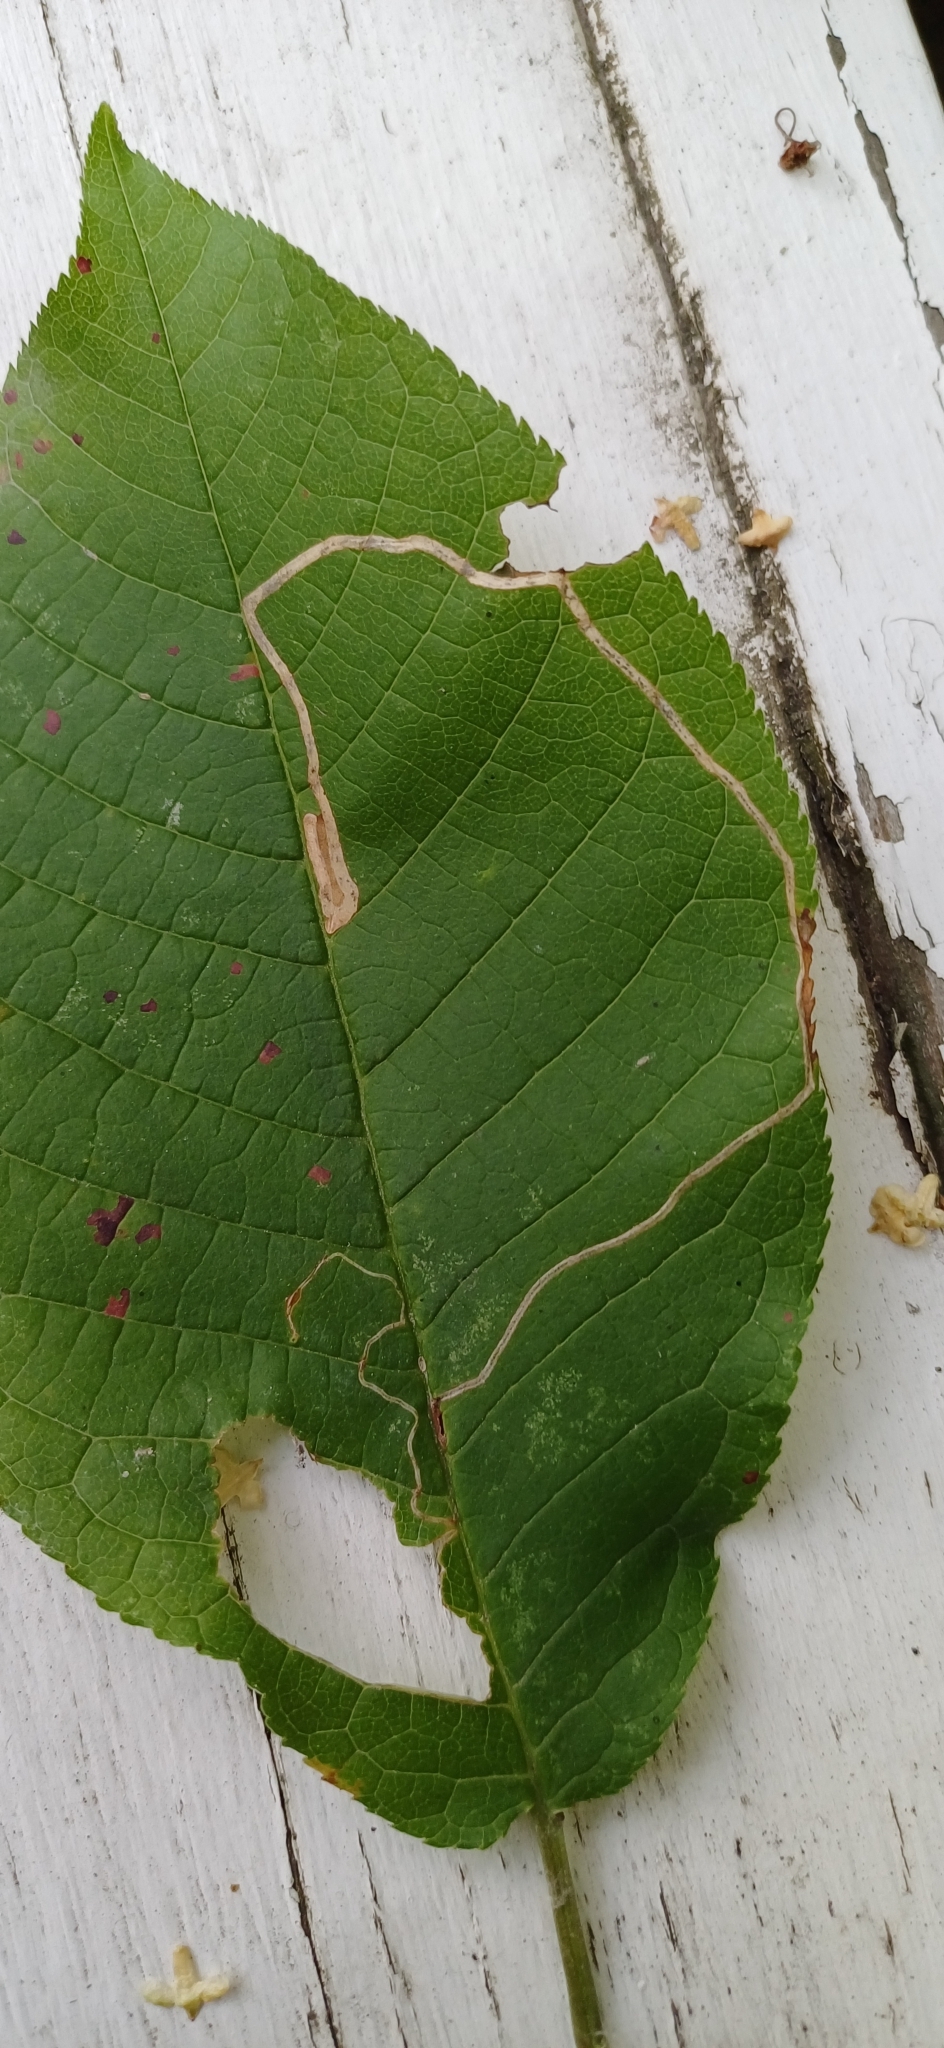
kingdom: Animalia
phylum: Arthropoda
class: Insecta
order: Lepidoptera
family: Lyonetiidae
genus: Lyonetia
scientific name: Lyonetia clerkella
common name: Apple leaf miner
